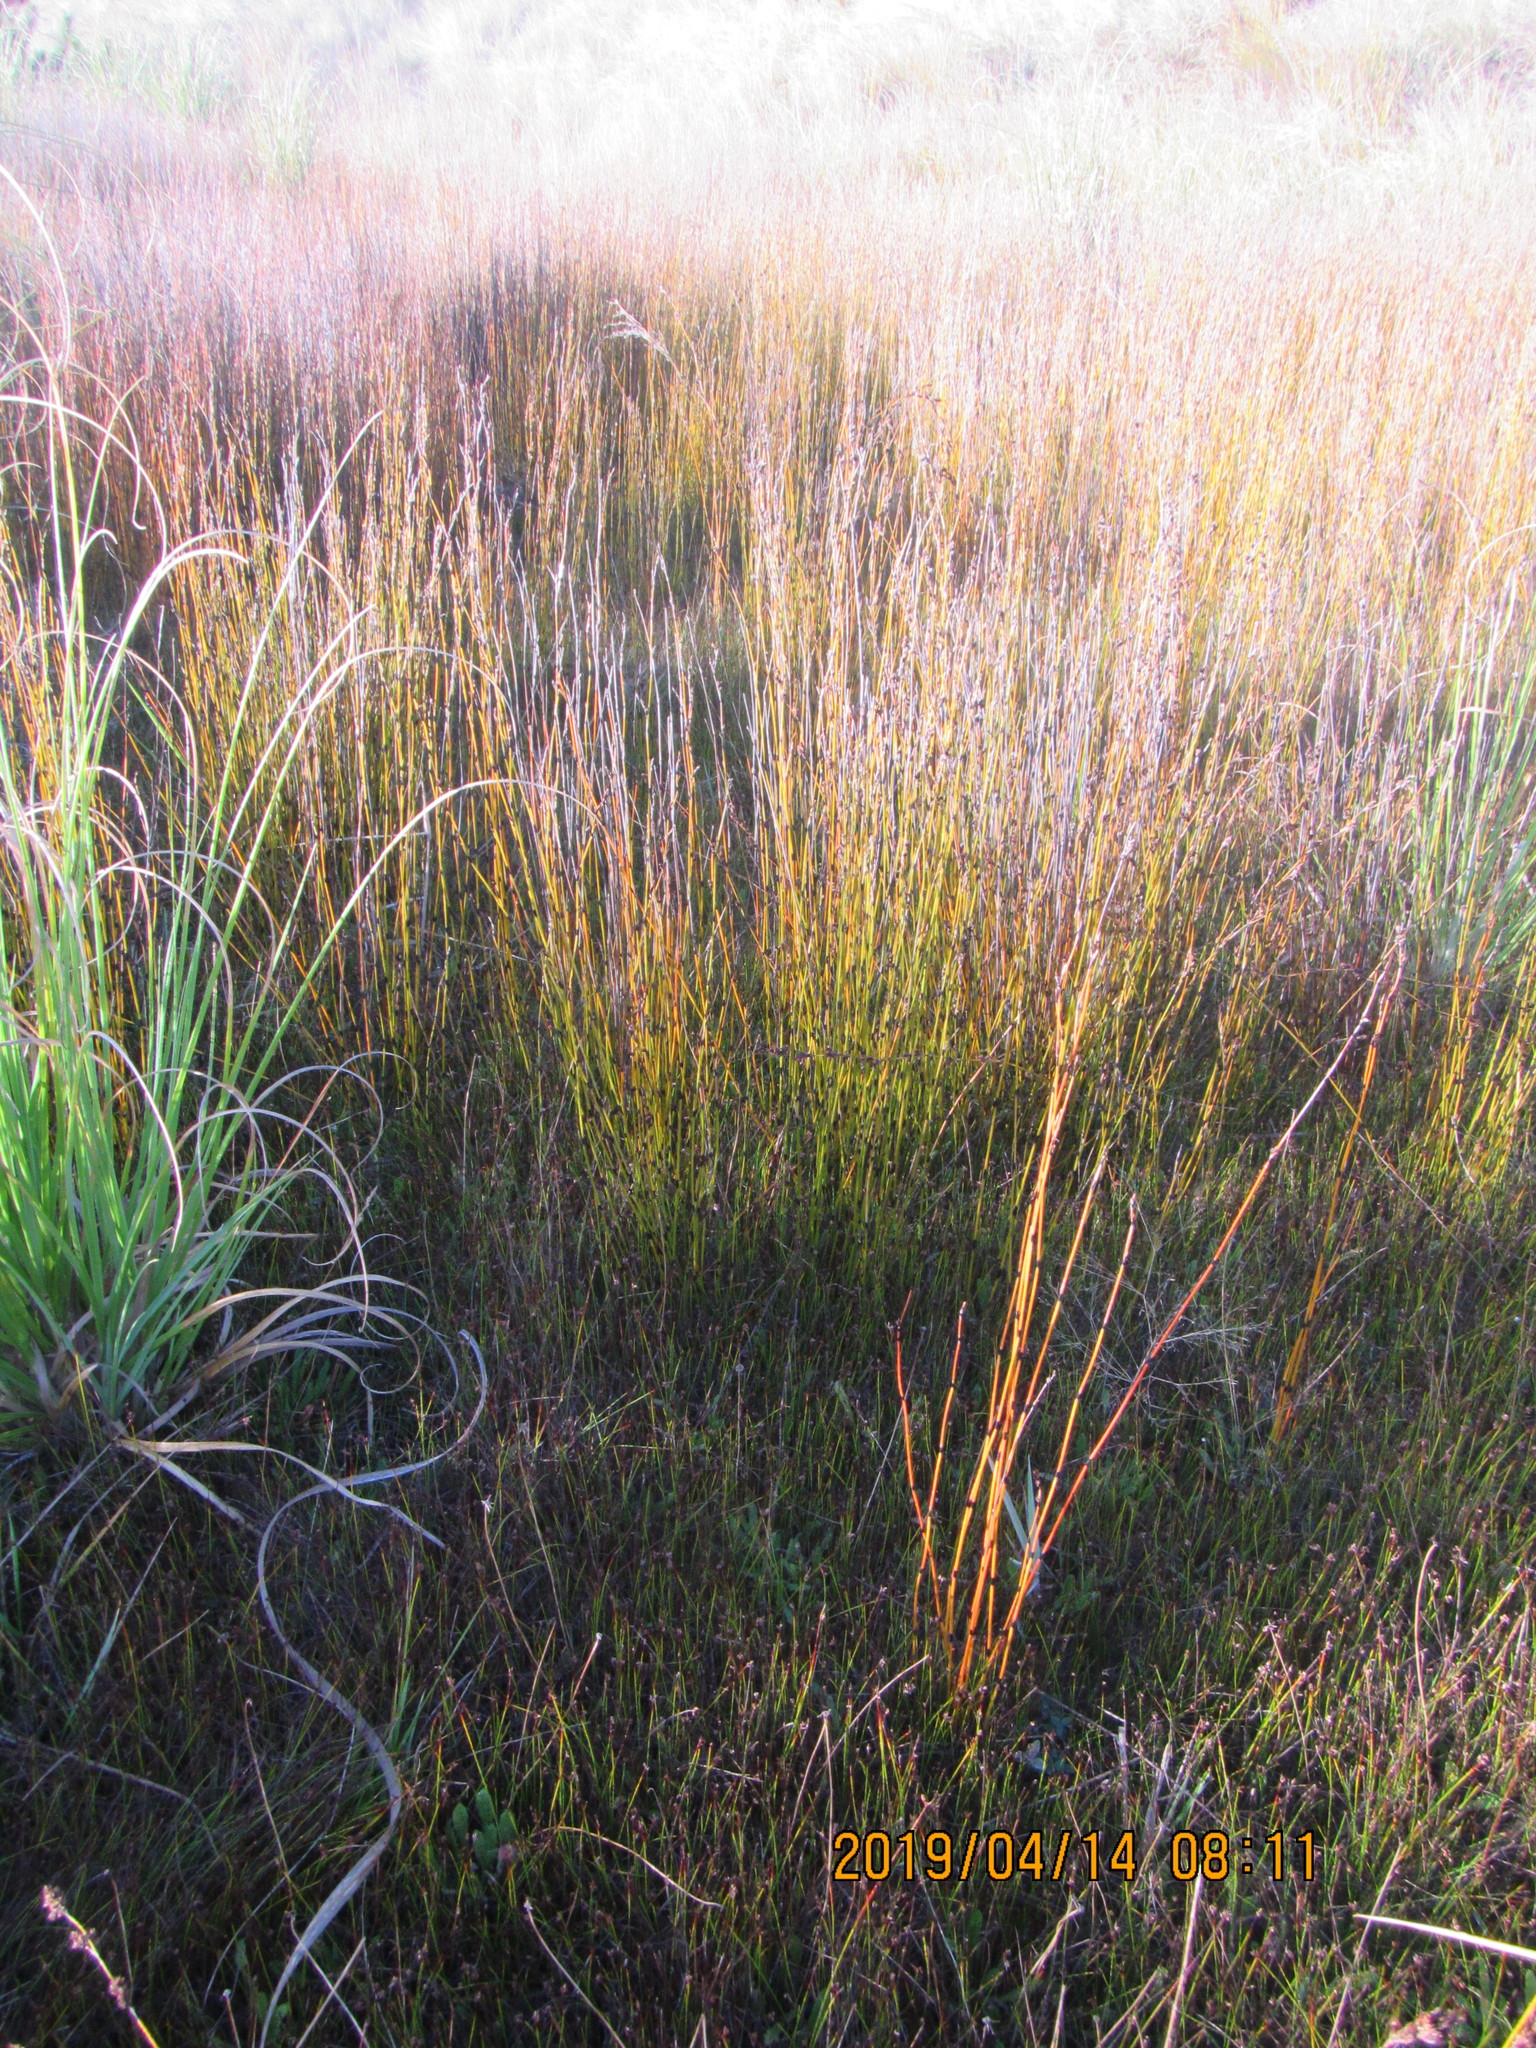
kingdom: Plantae
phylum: Tracheophyta
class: Liliopsida
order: Poales
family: Restionaceae
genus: Apodasmia
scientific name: Apodasmia similis
